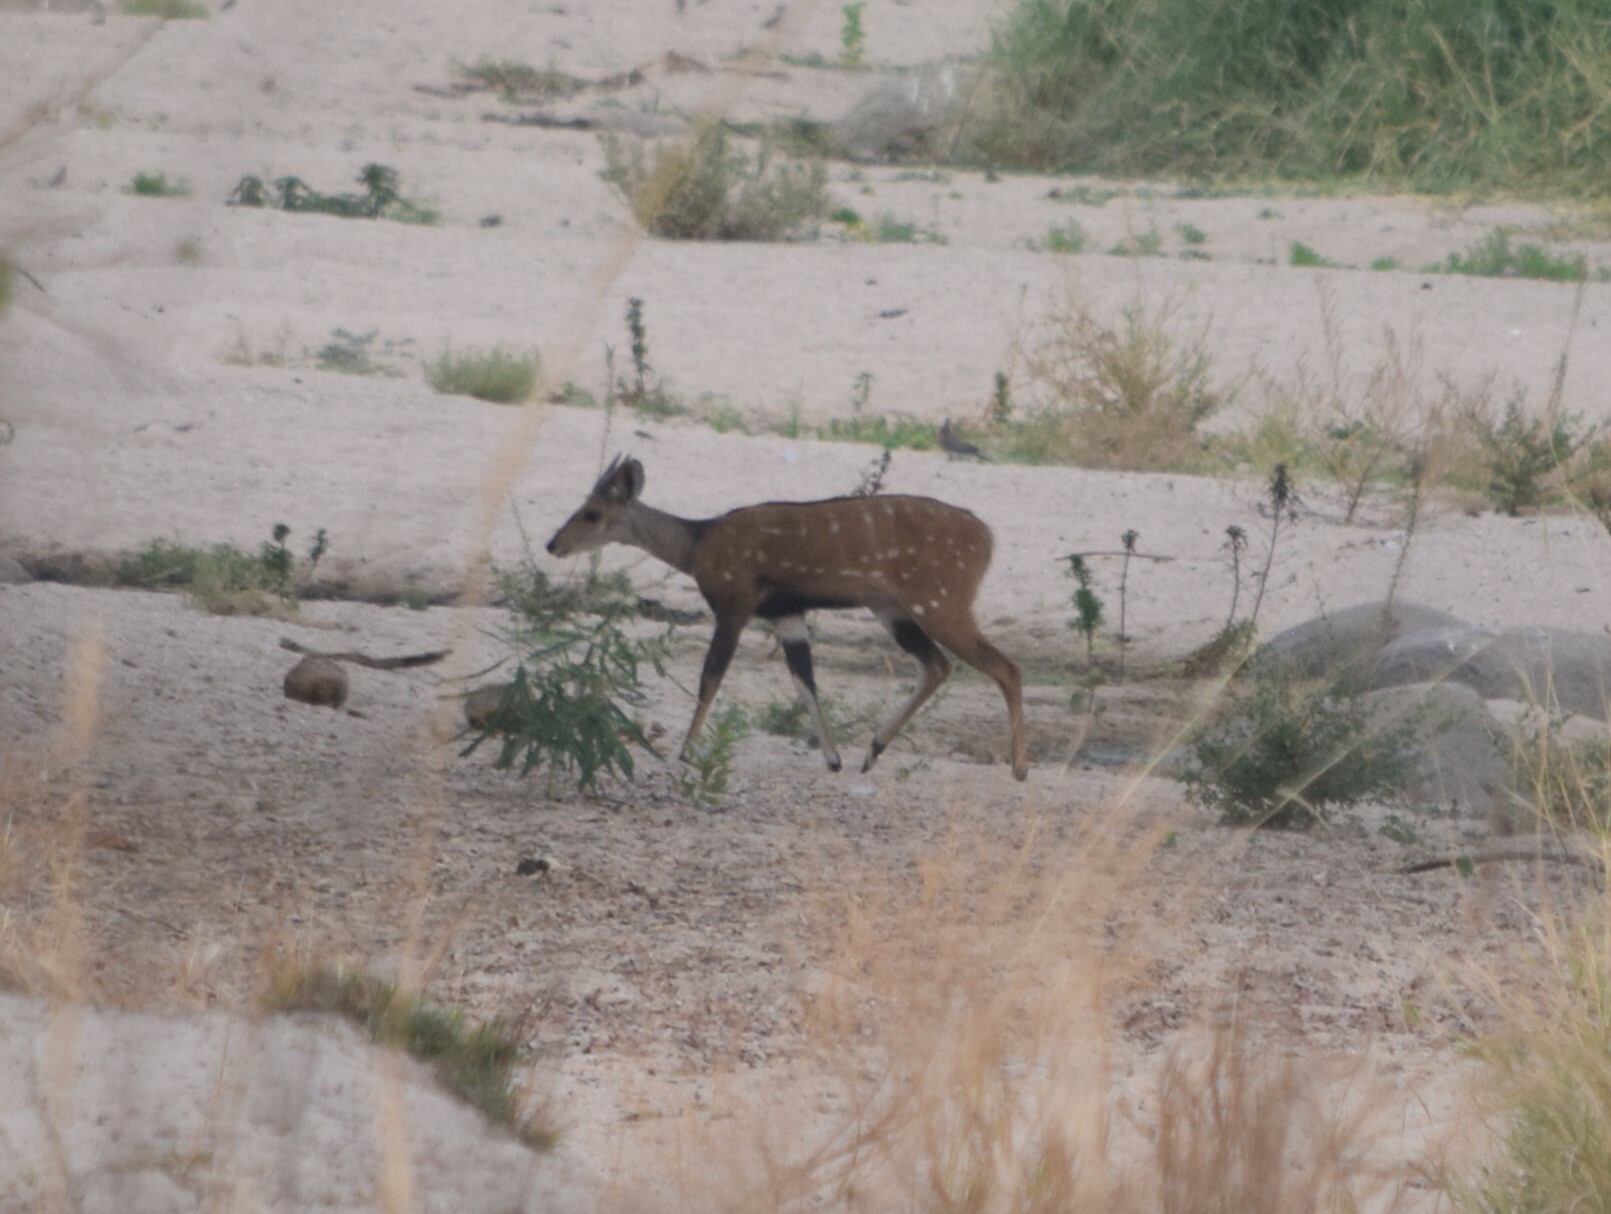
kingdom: Animalia
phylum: Chordata
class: Mammalia
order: Artiodactyla
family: Bovidae
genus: Tragelaphus
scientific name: Tragelaphus scriptus
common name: Bushbuck
